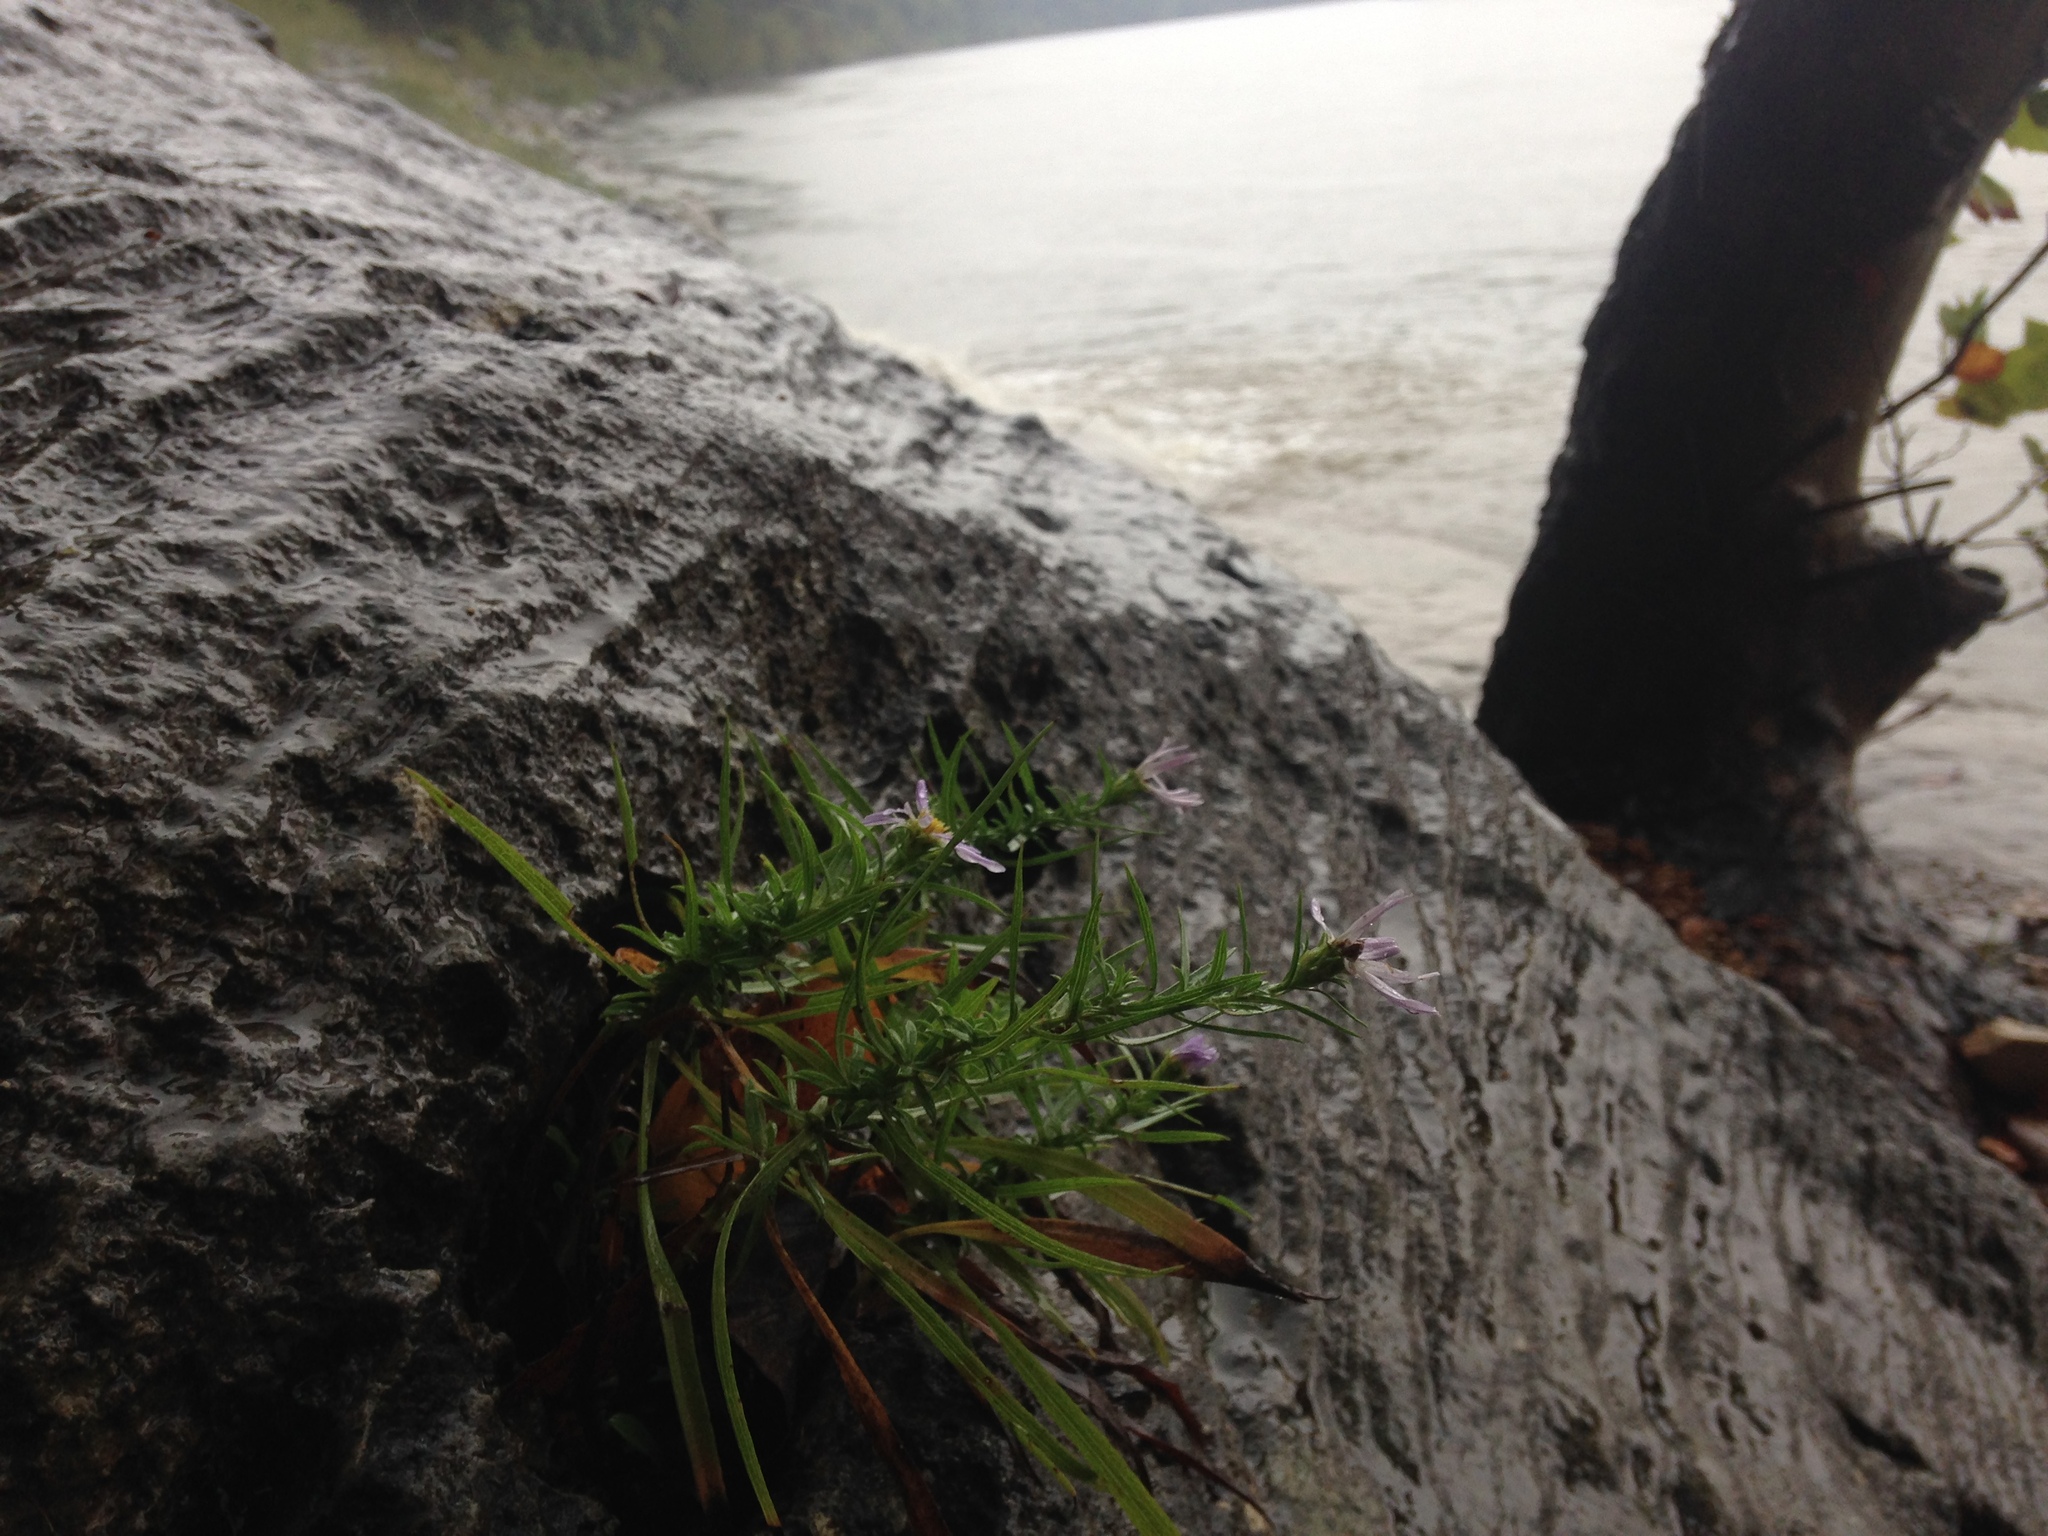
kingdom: Plantae
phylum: Tracheophyta
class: Magnoliopsida
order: Asterales
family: Asteraceae
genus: Symphyotrichum
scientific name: Symphyotrichum kentuckiense
